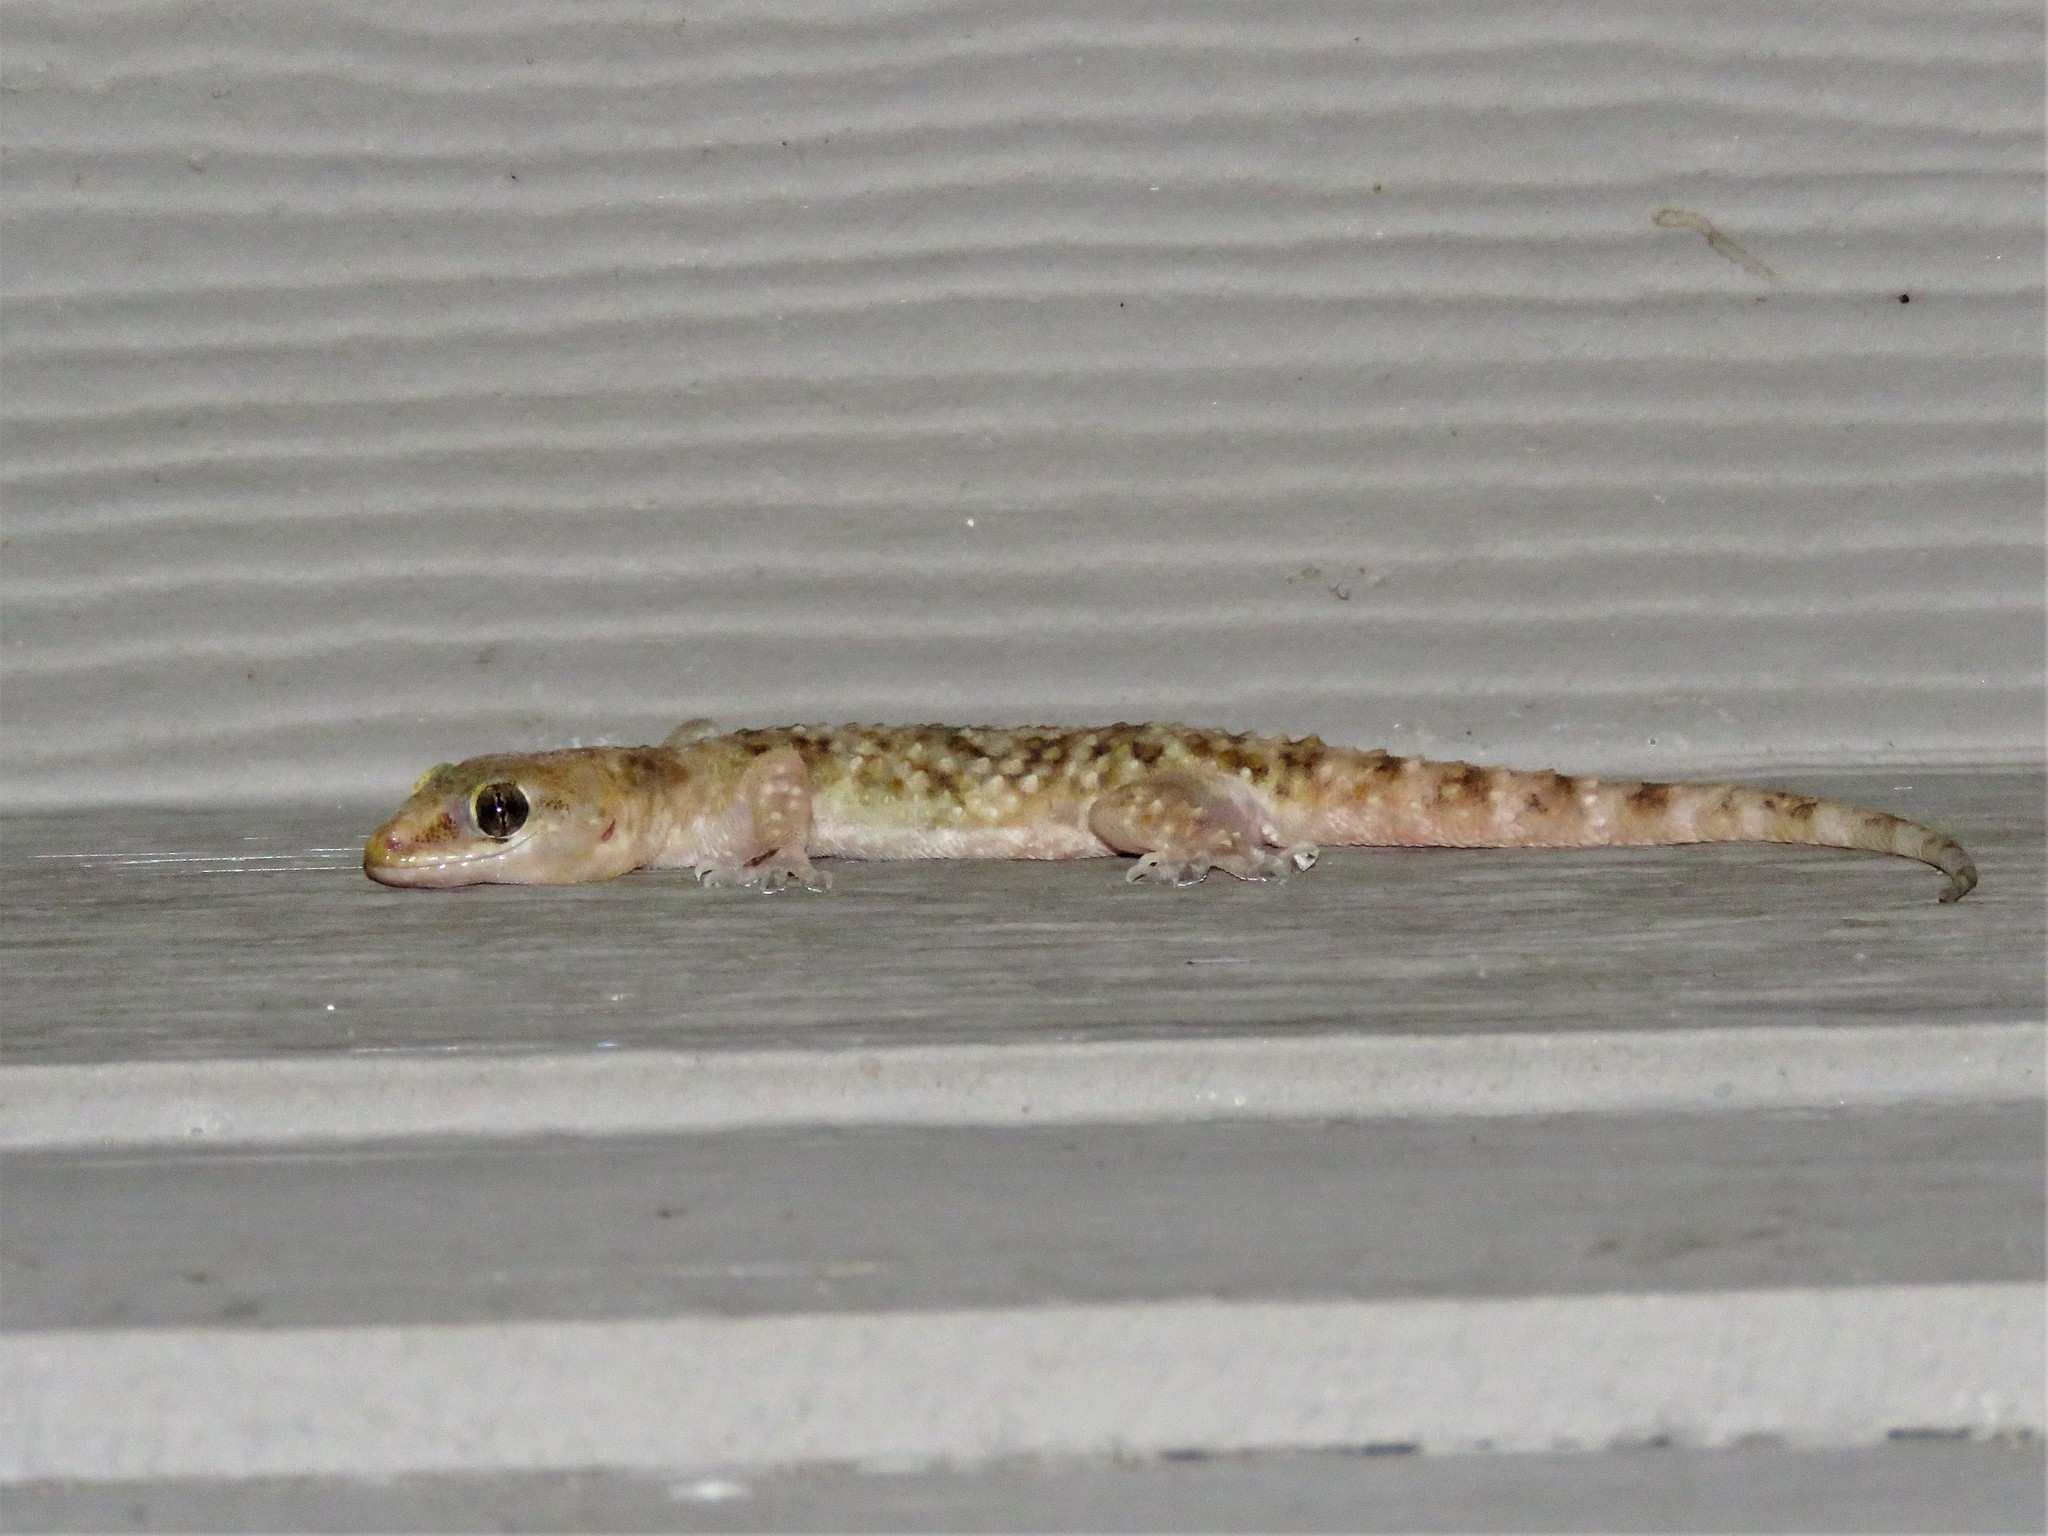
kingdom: Animalia
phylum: Chordata
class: Squamata
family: Gekkonidae
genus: Hemidactylus
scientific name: Hemidactylus turcicus
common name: Turkish gecko
